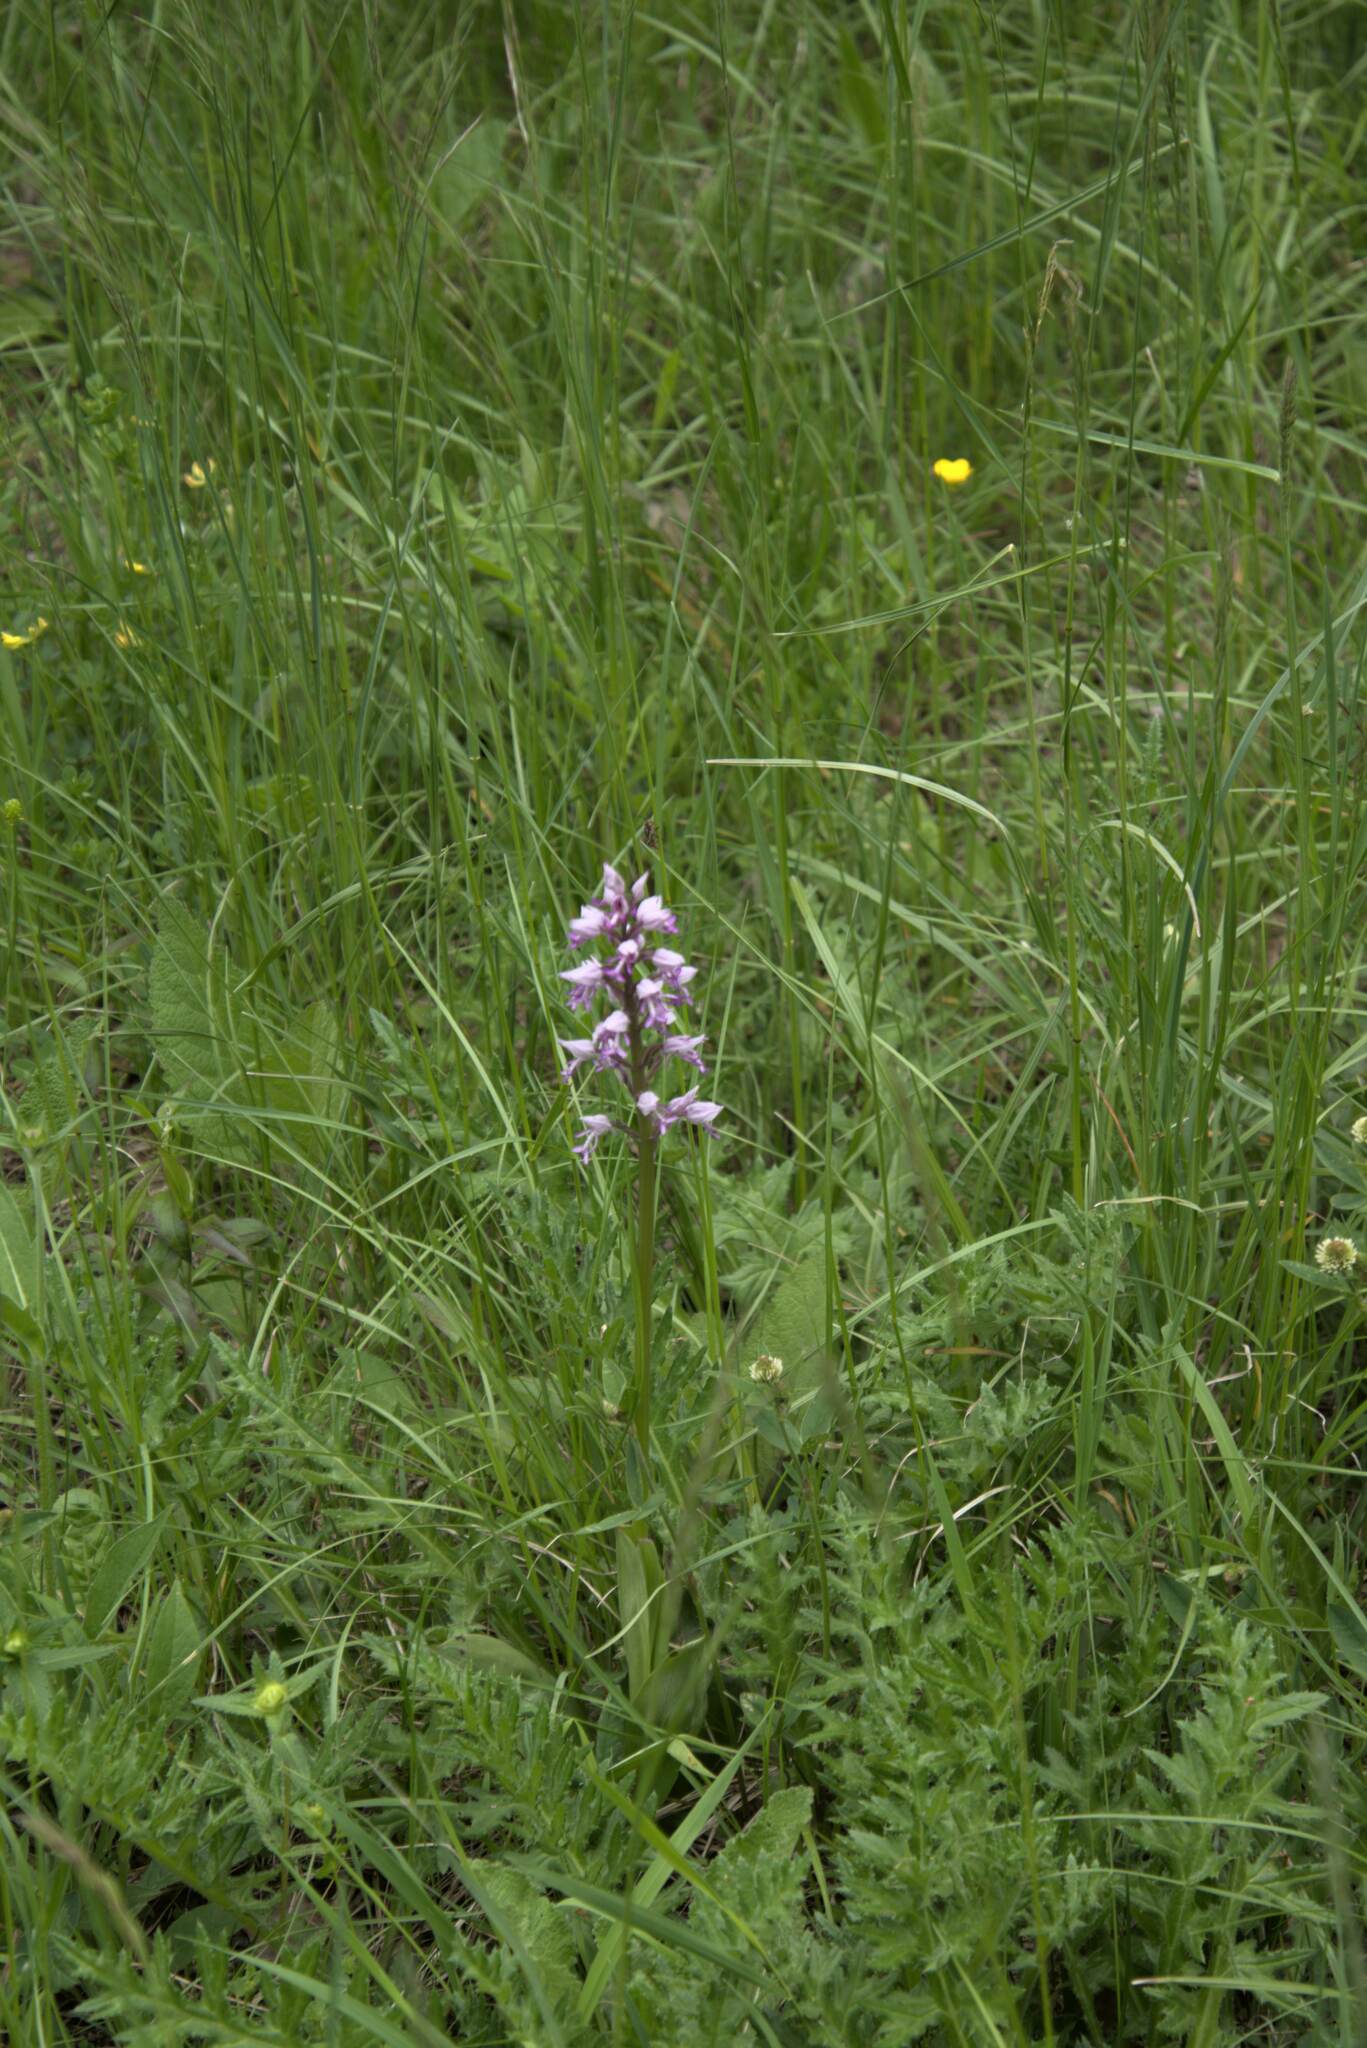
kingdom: Plantae
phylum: Tracheophyta
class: Liliopsida
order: Asparagales
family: Orchidaceae
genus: Orchis
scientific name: Orchis militaris
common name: Military orchid
